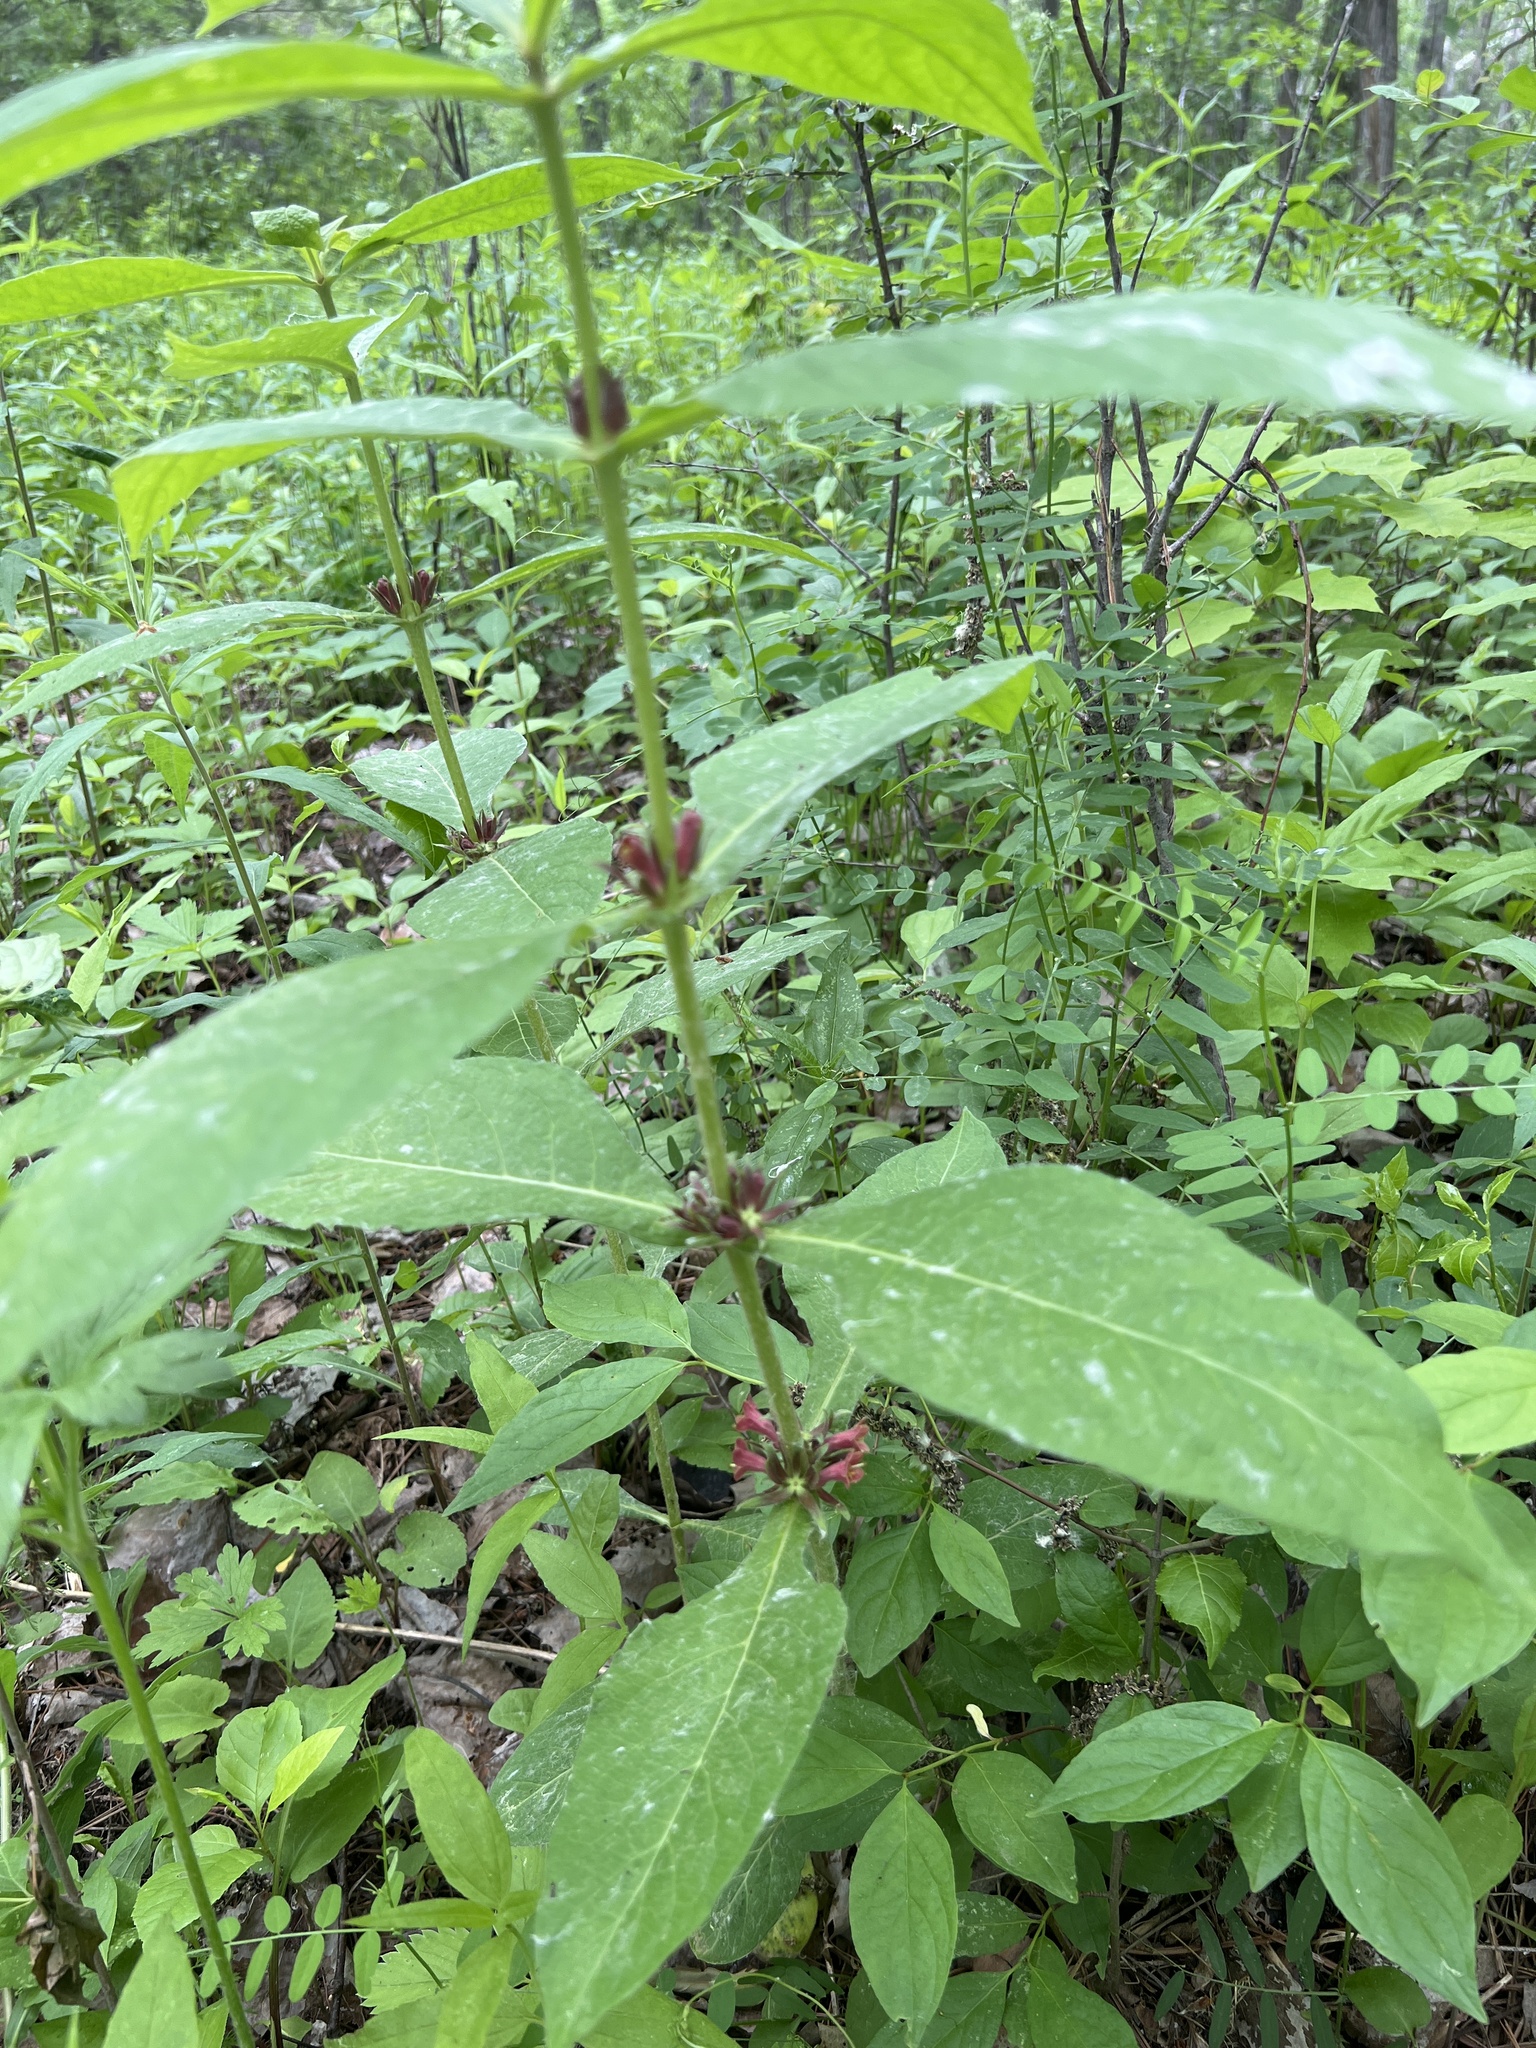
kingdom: Plantae
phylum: Tracheophyta
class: Magnoliopsida
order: Dipsacales
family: Caprifoliaceae
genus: Triosteum
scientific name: Triosteum aurantiacum
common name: Coffee tinker's-weed
